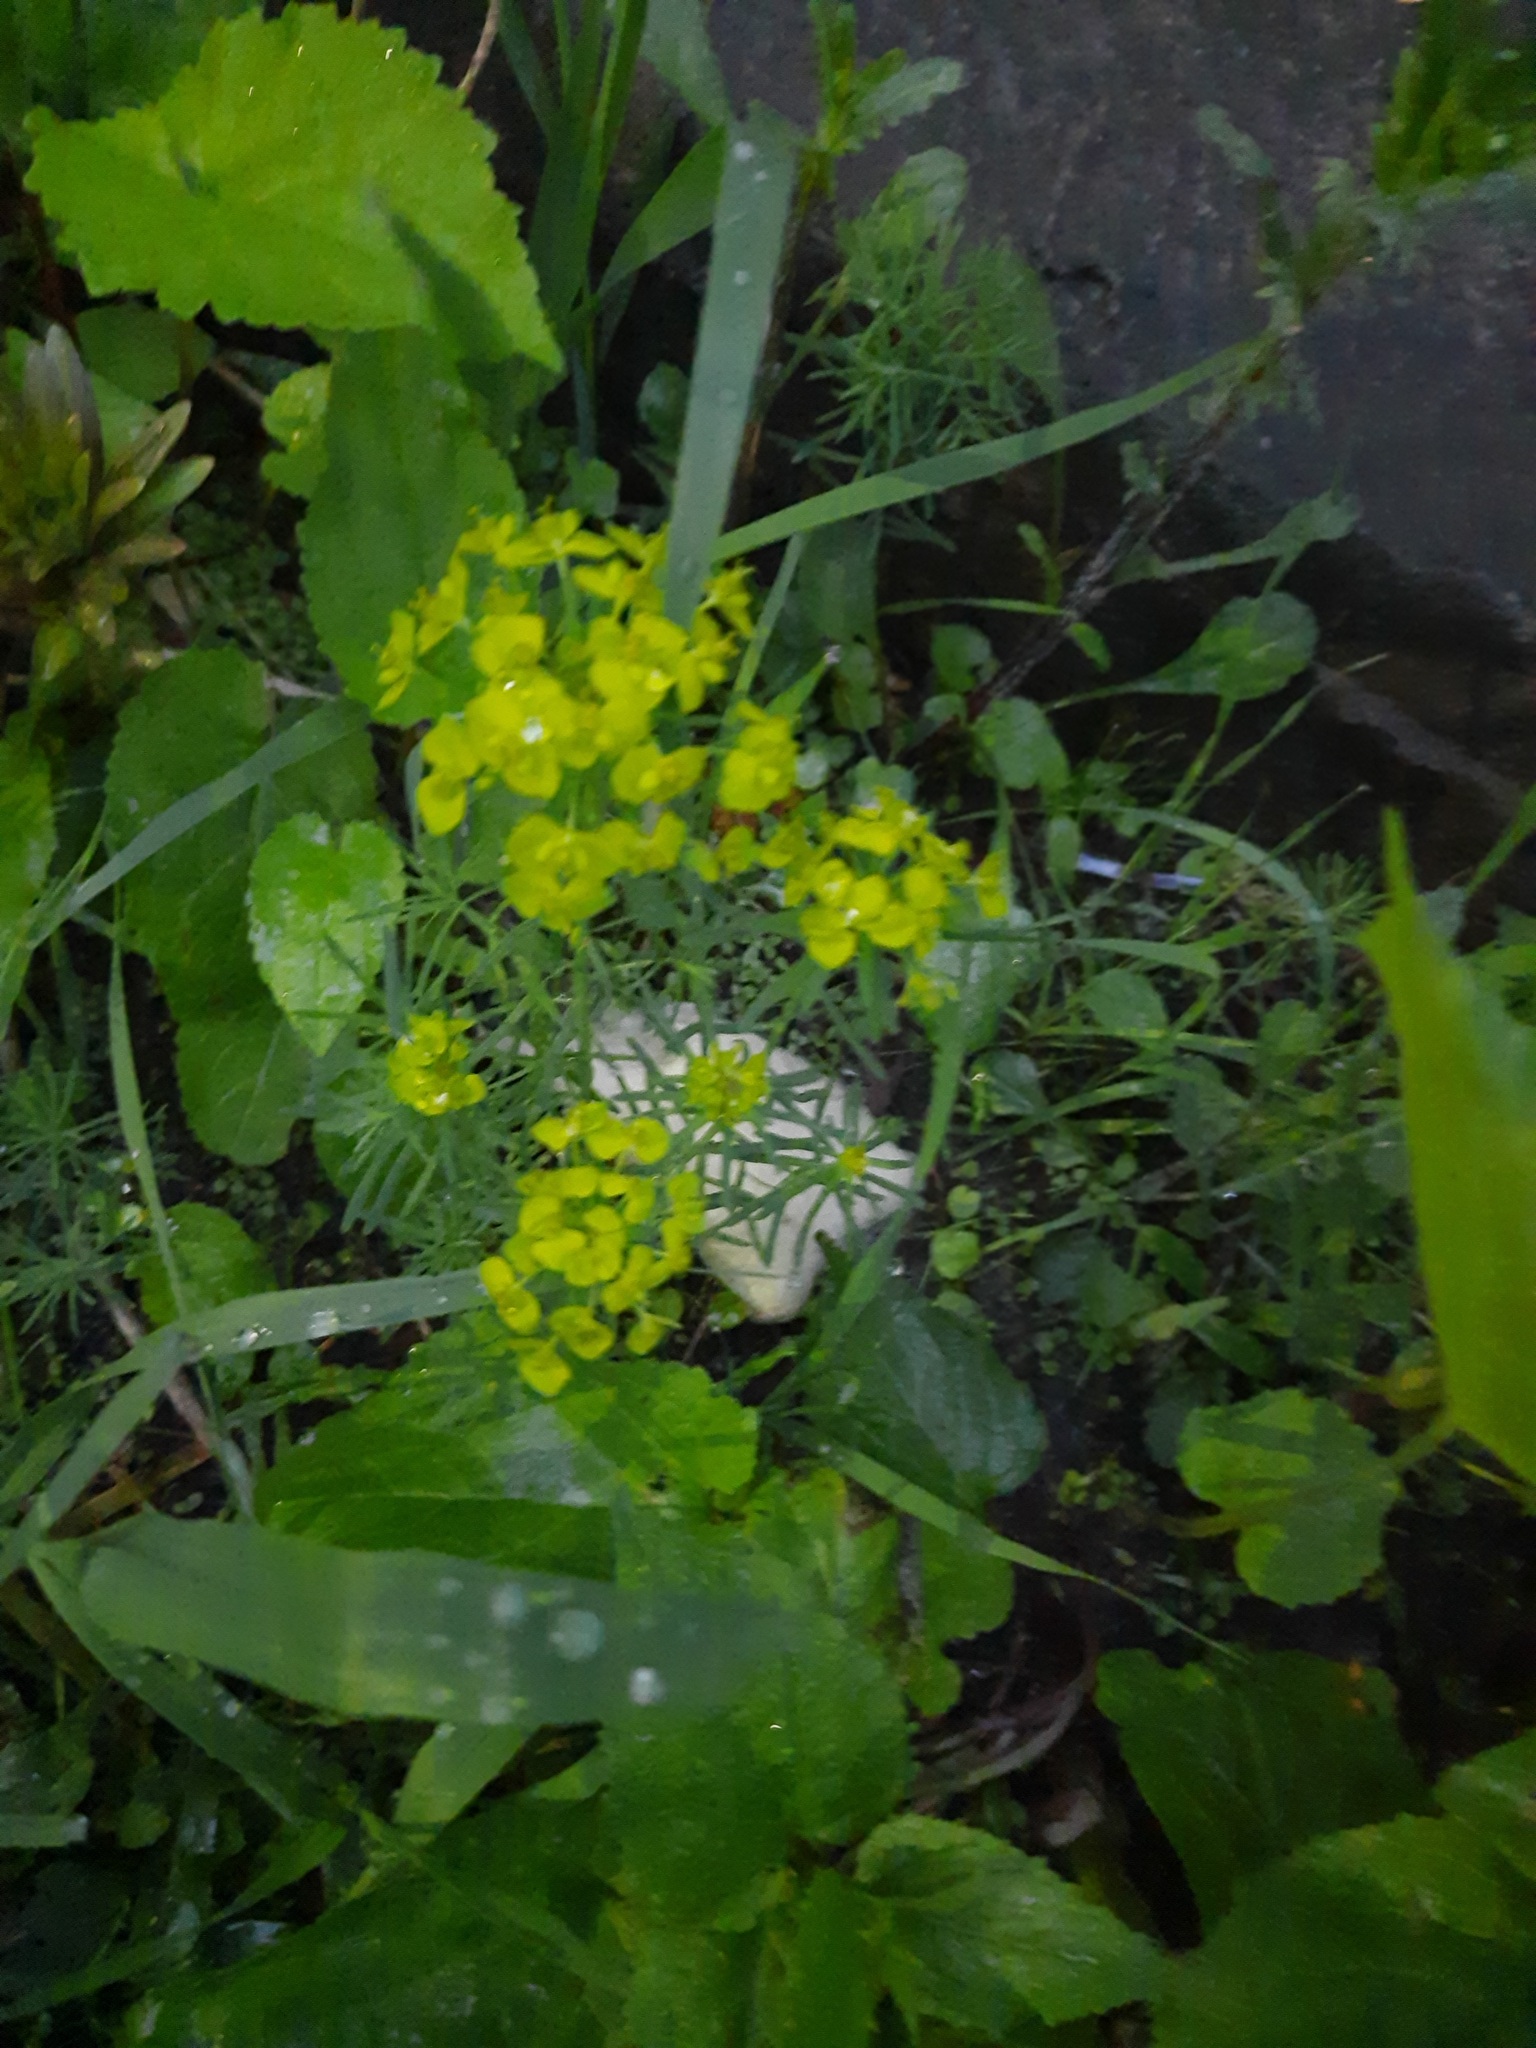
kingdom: Plantae
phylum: Tracheophyta
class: Magnoliopsida
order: Malpighiales
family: Euphorbiaceae
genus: Euphorbia
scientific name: Euphorbia cyparissias
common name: Cypress spurge
